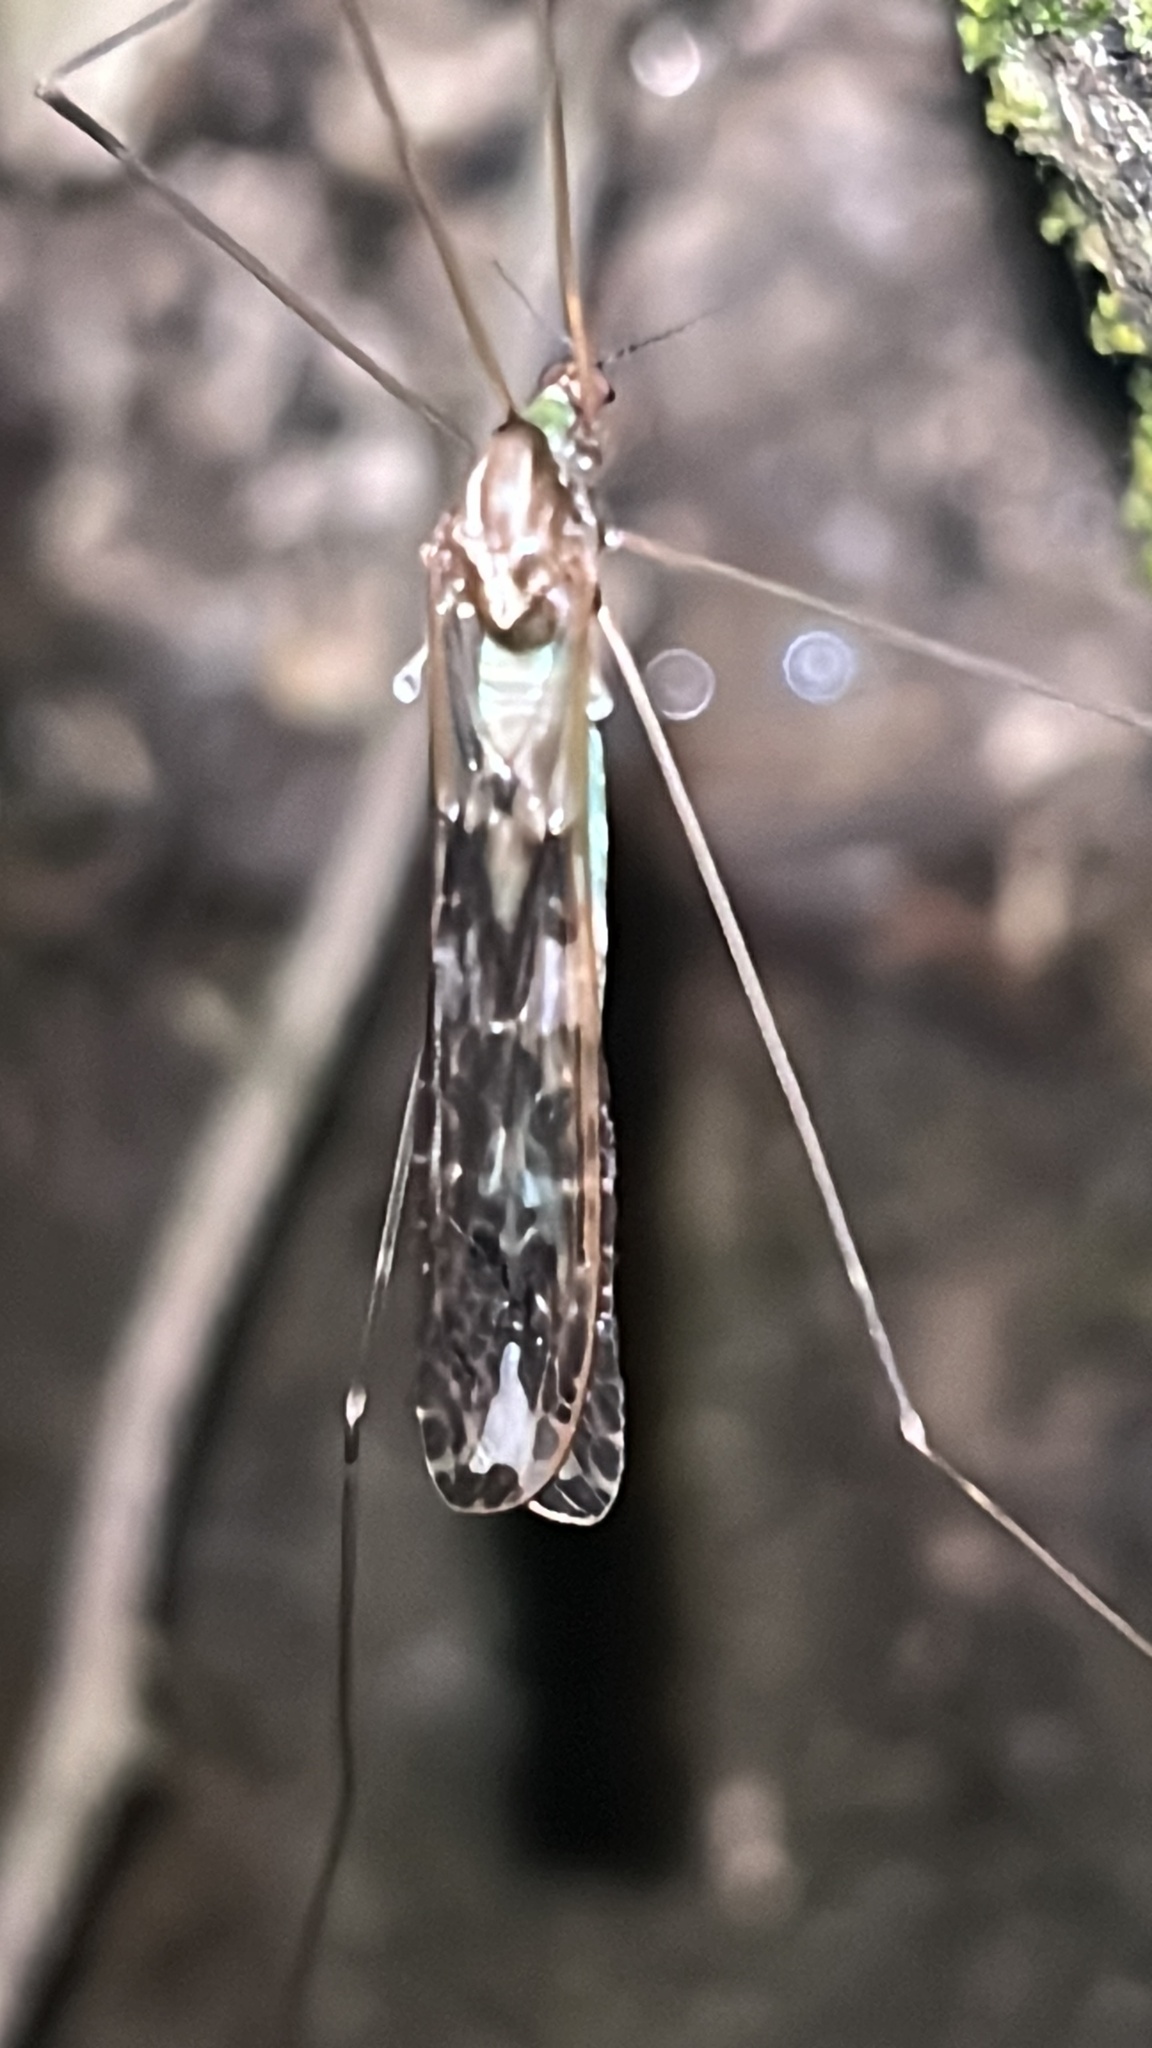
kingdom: Animalia
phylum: Arthropoda
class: Insecta
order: Diptera
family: Limoniidae
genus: Discobola
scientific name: Discobola dohrni
